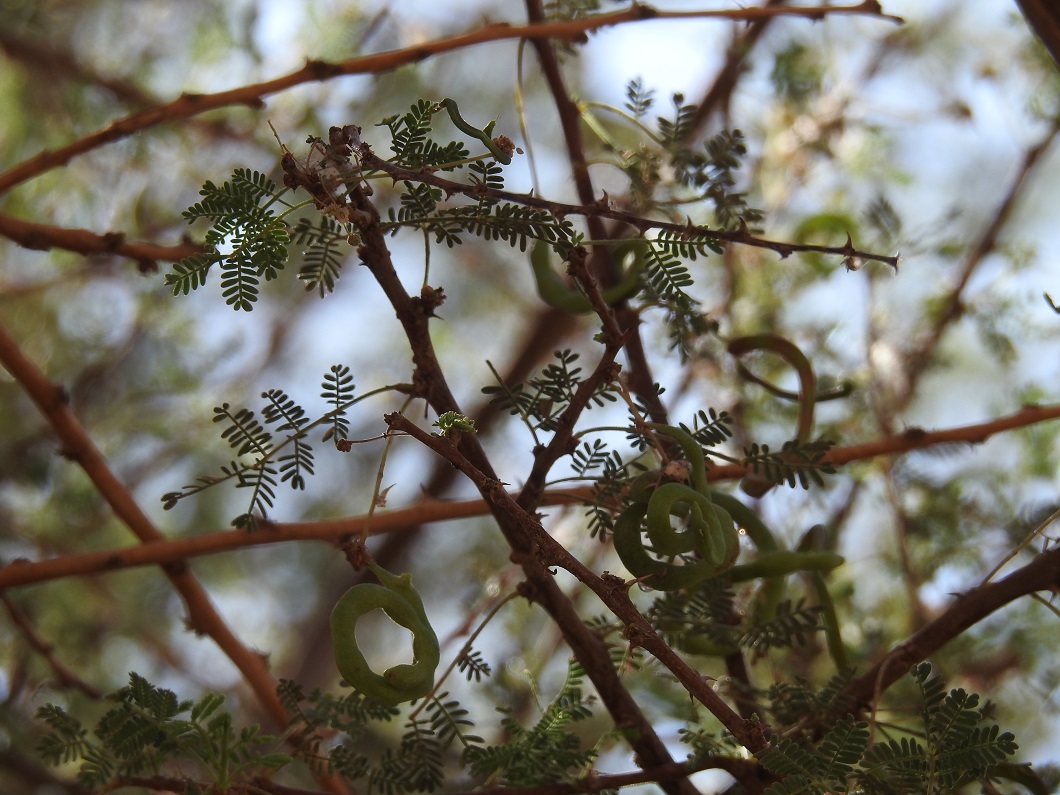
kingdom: Plantae
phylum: Tracheophyta
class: Magnoliopsida
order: Fabales
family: Fabaceae
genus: Vachellia
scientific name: Vachellia tortilis
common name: Umbrella thorn acacia
